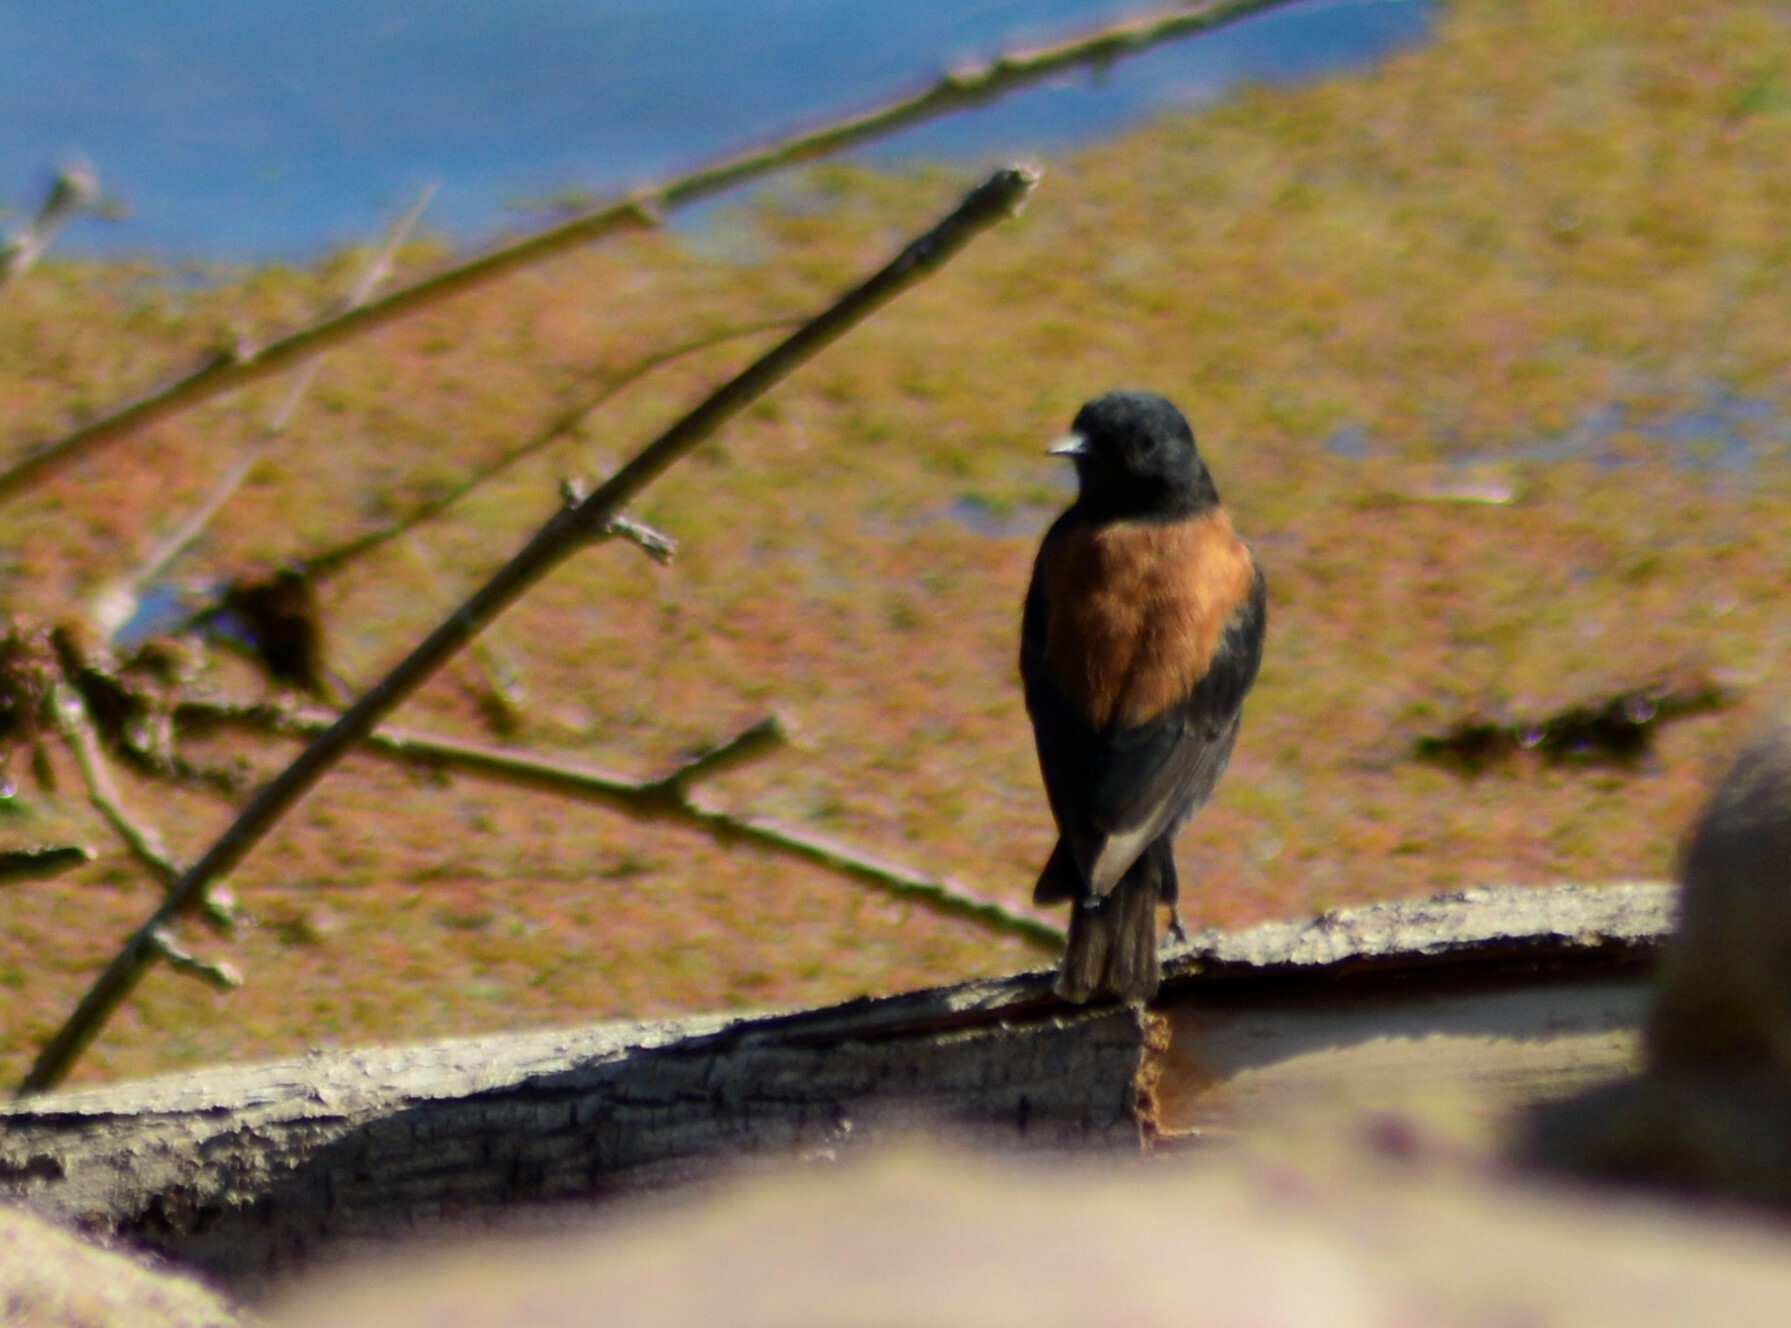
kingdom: Animalia
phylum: Chordata
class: Aves
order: Passeriformes
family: Tyrannidae
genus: Lessonia
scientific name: Lessonia rufa
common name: Austral negrito
